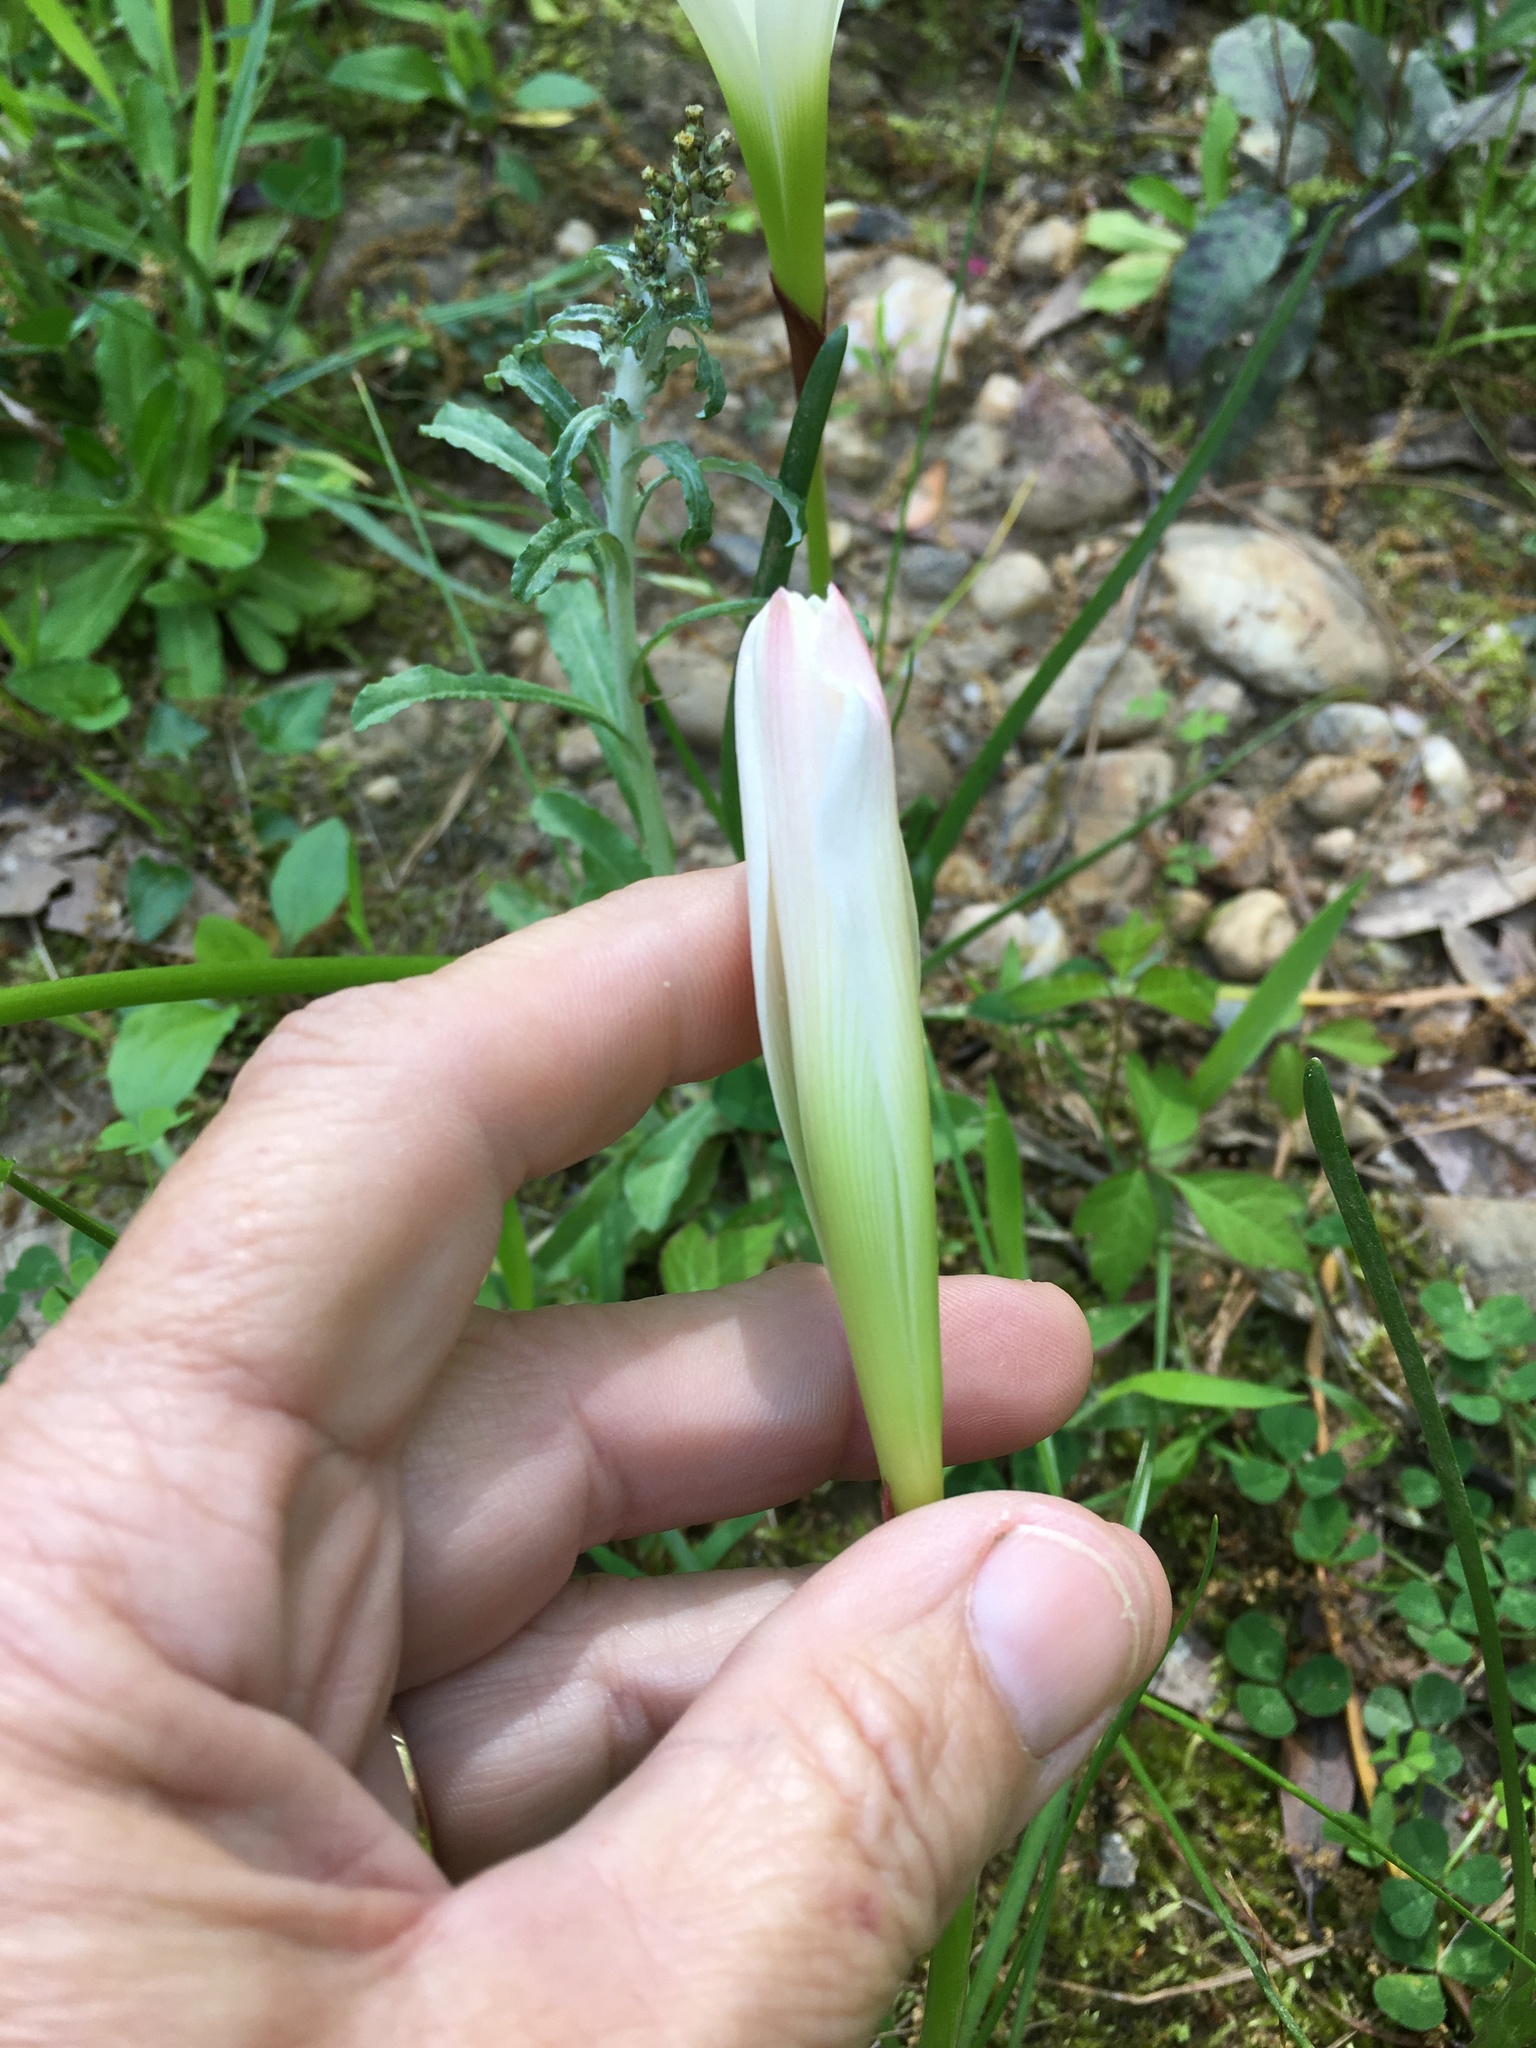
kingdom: Plantae
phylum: Tracheophyta
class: Liliopsida
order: Asparagales
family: Amaryllidaceae
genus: Zephyranthes
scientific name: Zephyranthes atamasco
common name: Atamasco lily
